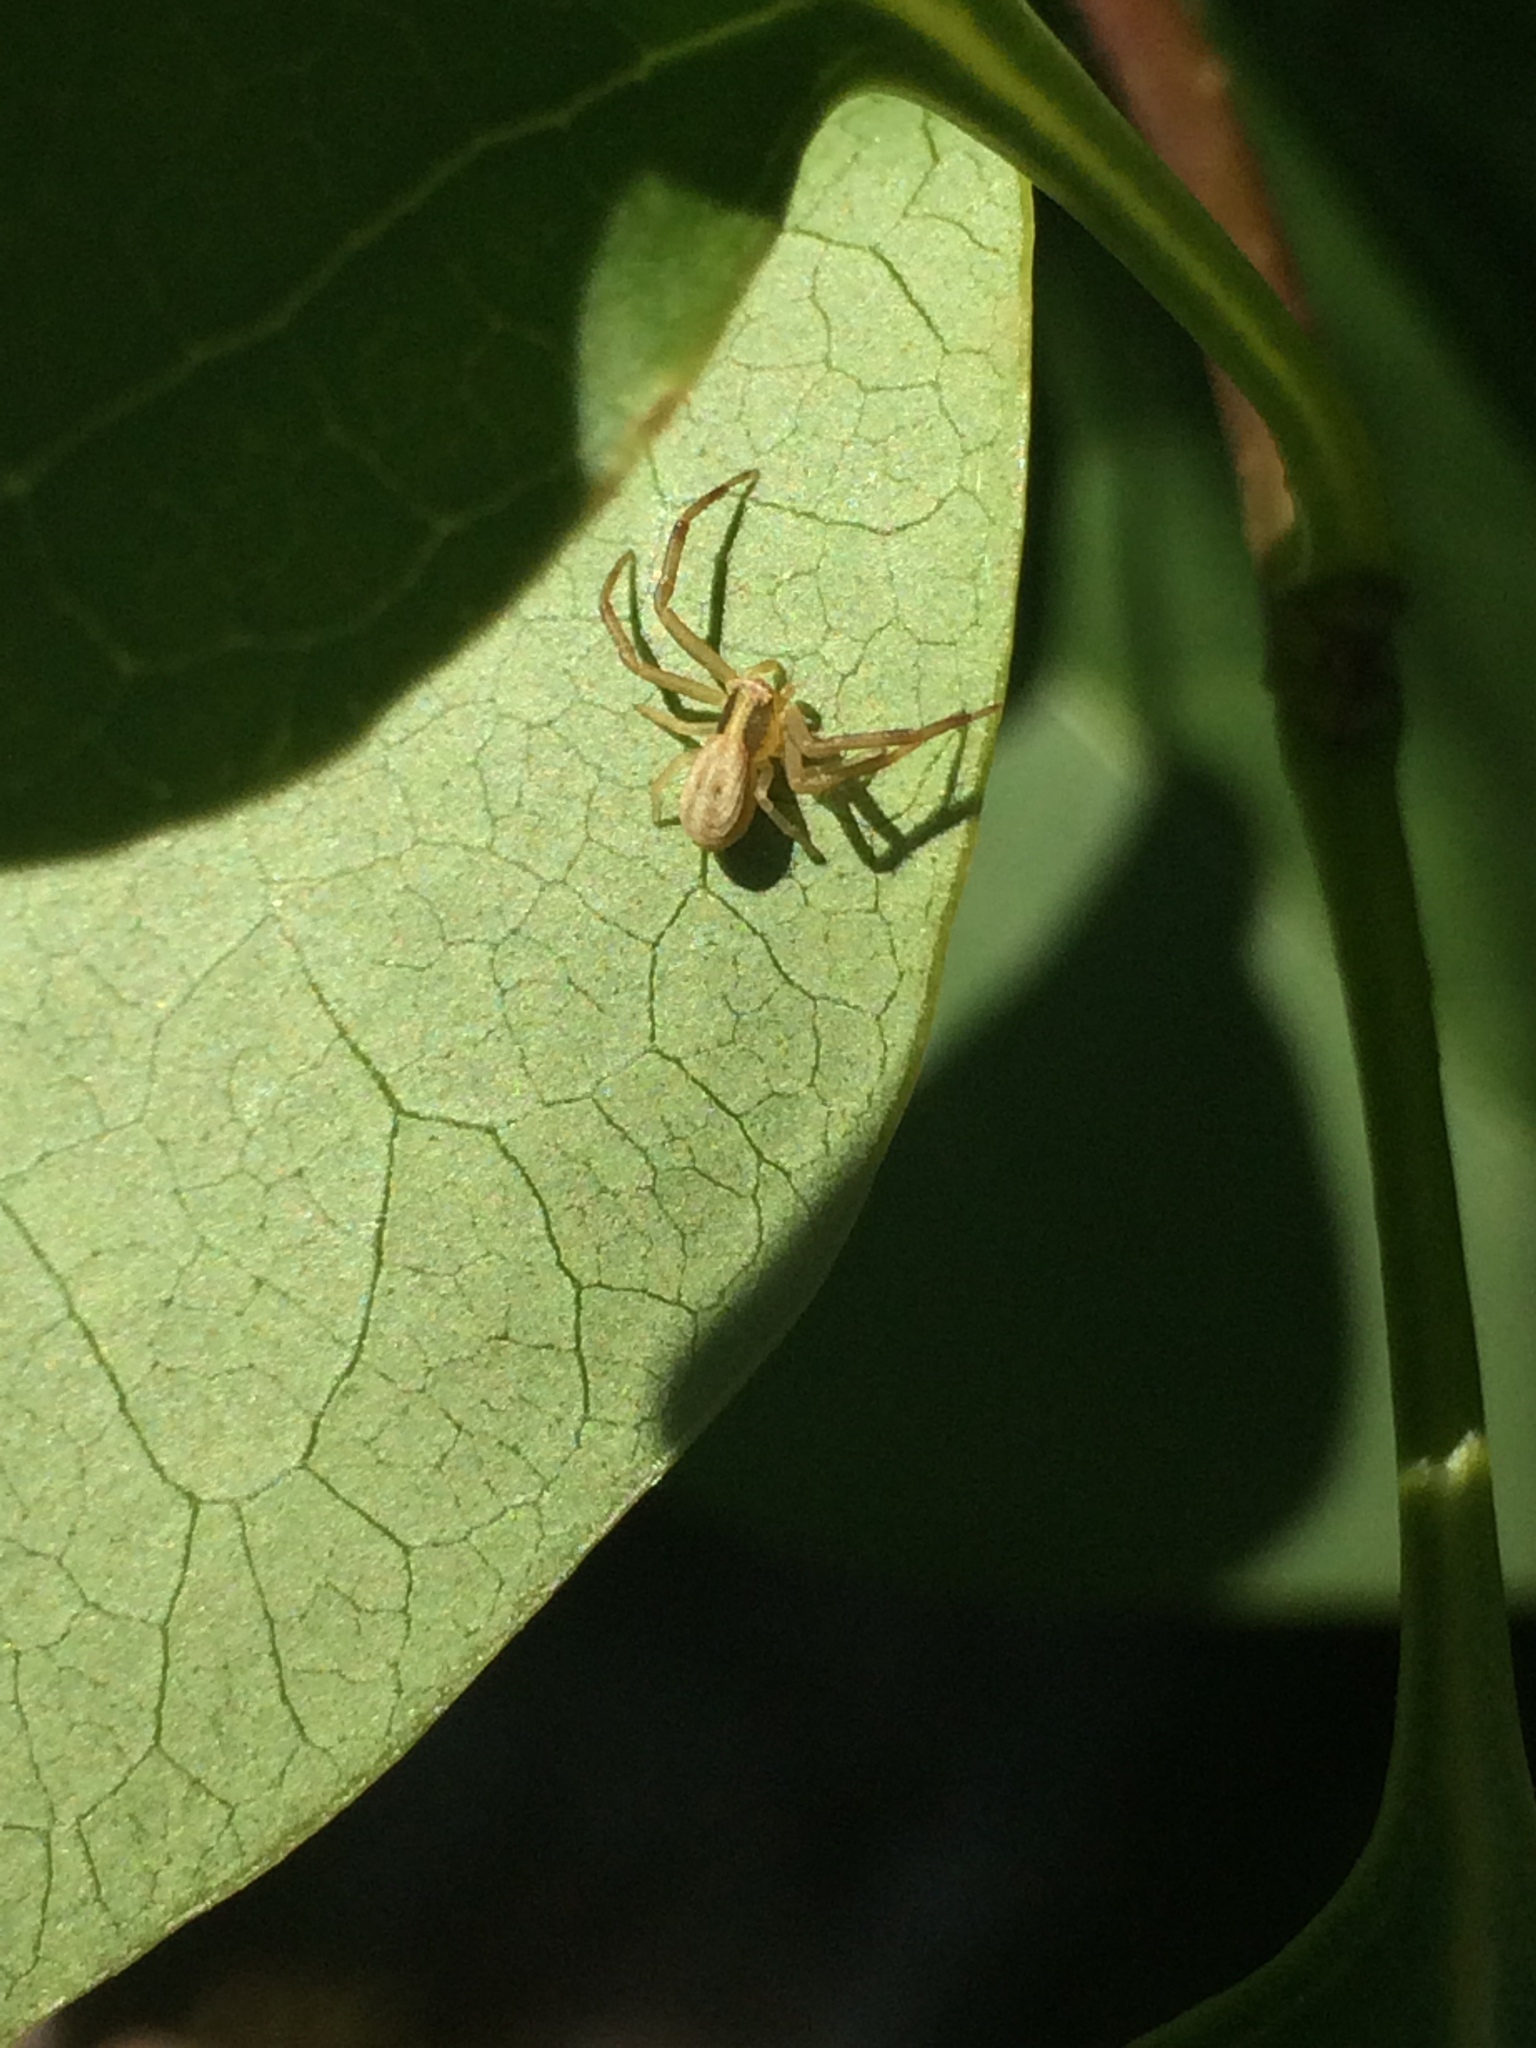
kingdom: Animalia
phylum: Arthropoda
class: Arachnida
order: Araneae
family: Thomisidae
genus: Runcinia
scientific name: Runcinia grammica
